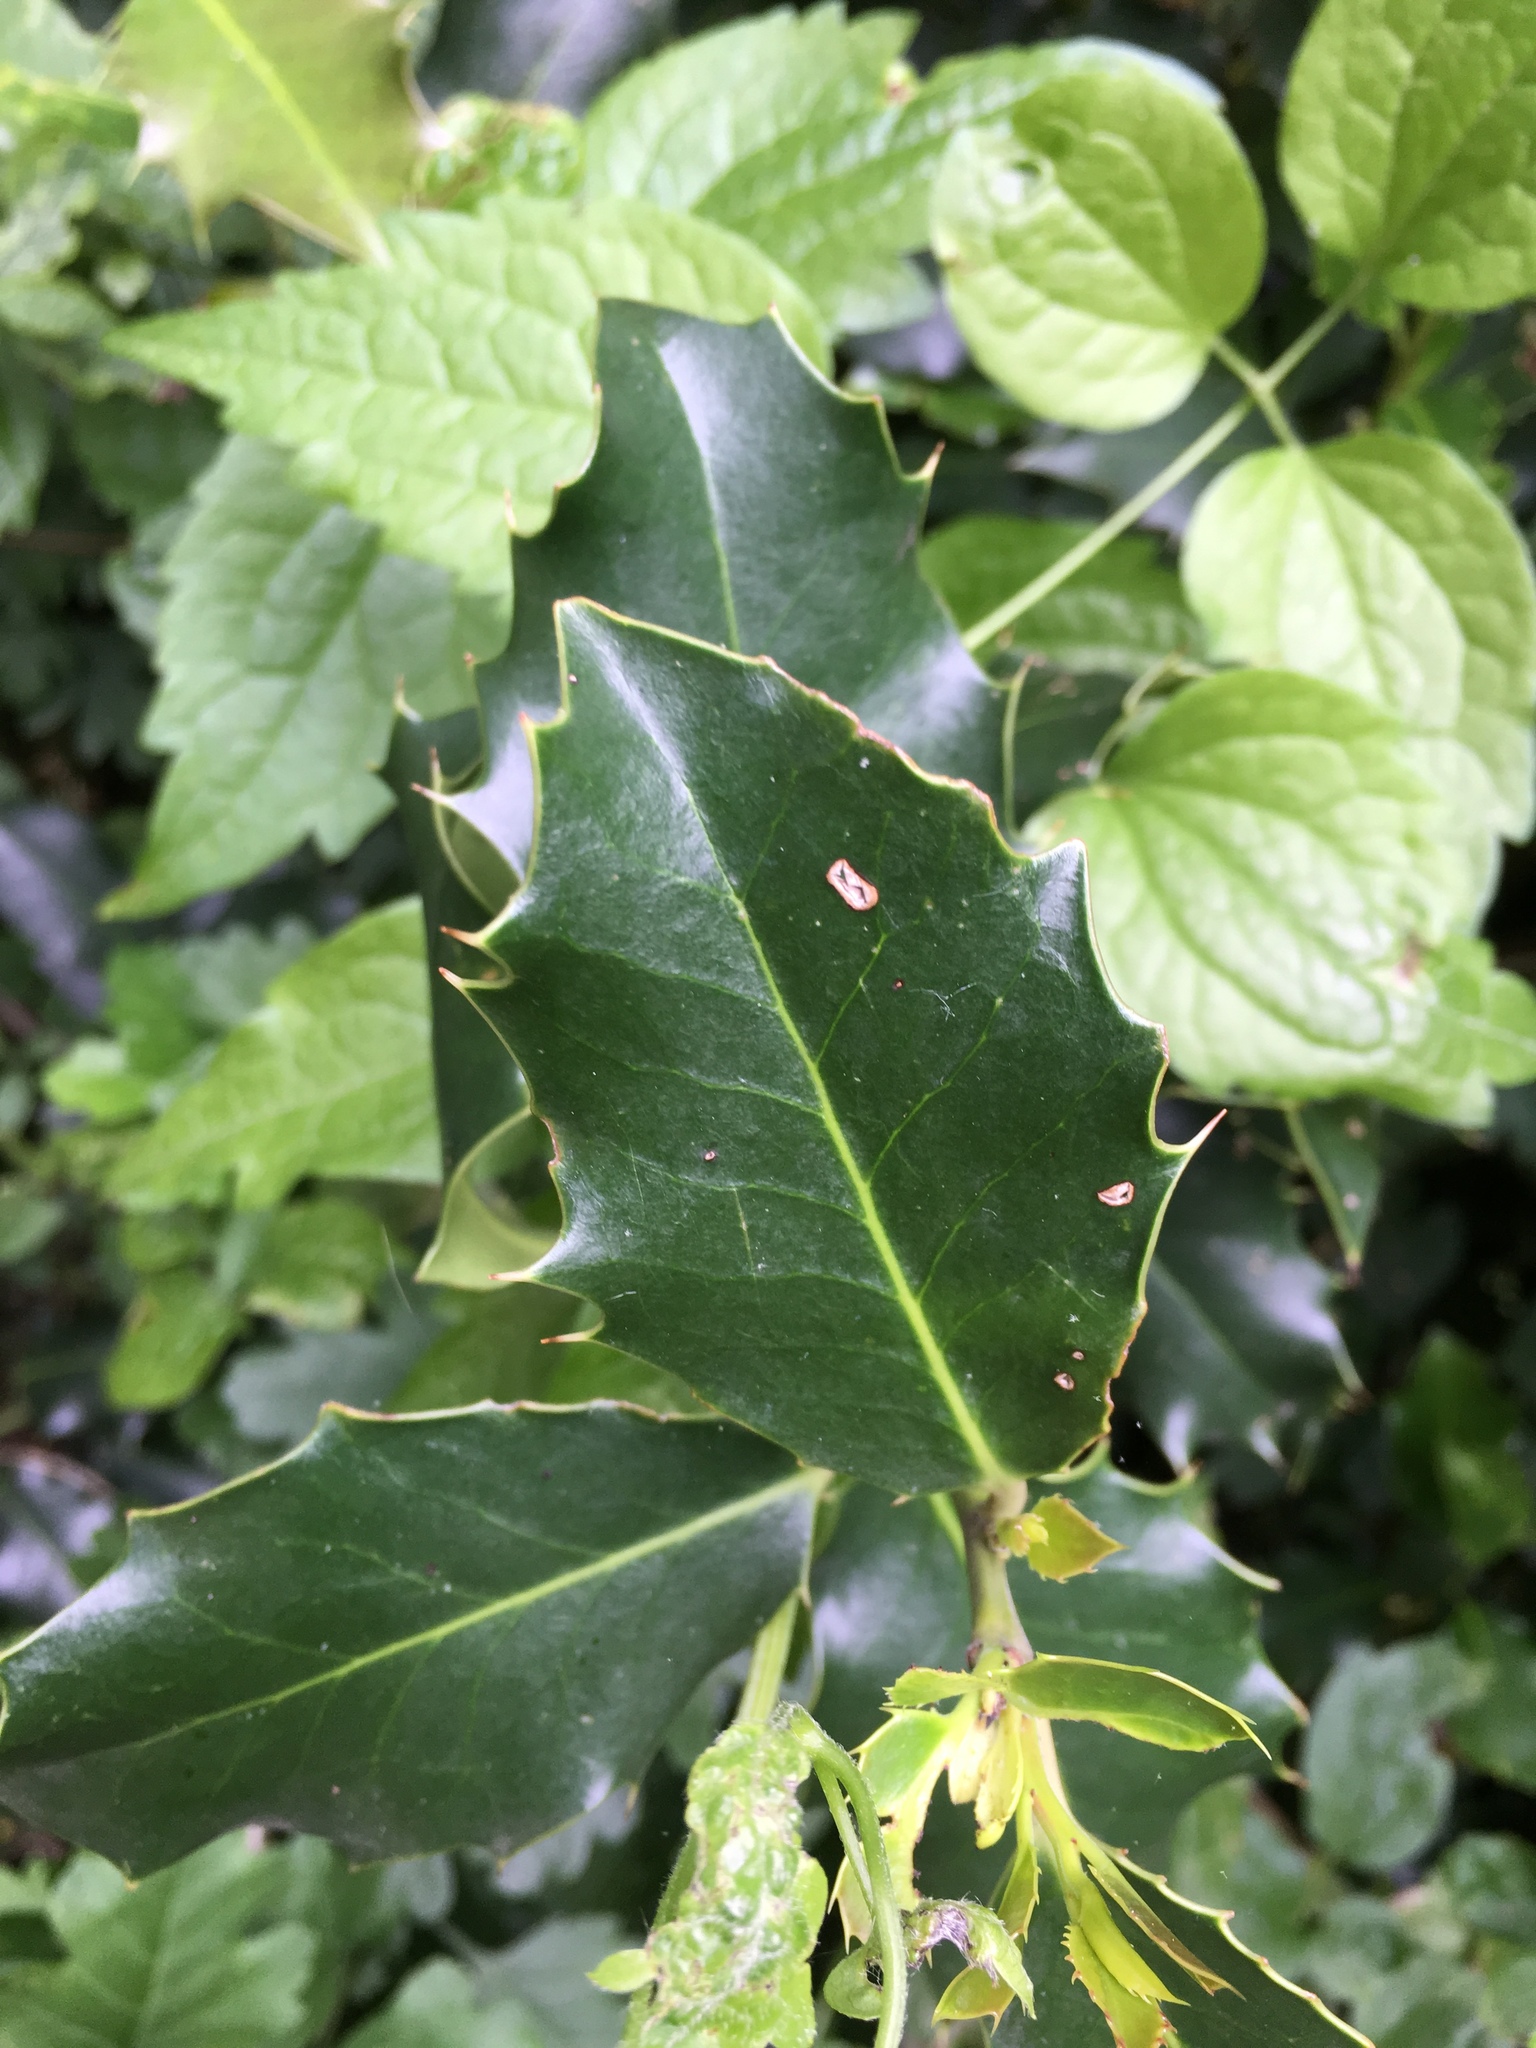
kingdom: Plantae
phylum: Tracheophyta
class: Magnoliopsida
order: Aquifoliales
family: Aquifoliaceae
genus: Ilex
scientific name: Ilex aquifolium
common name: English holly
